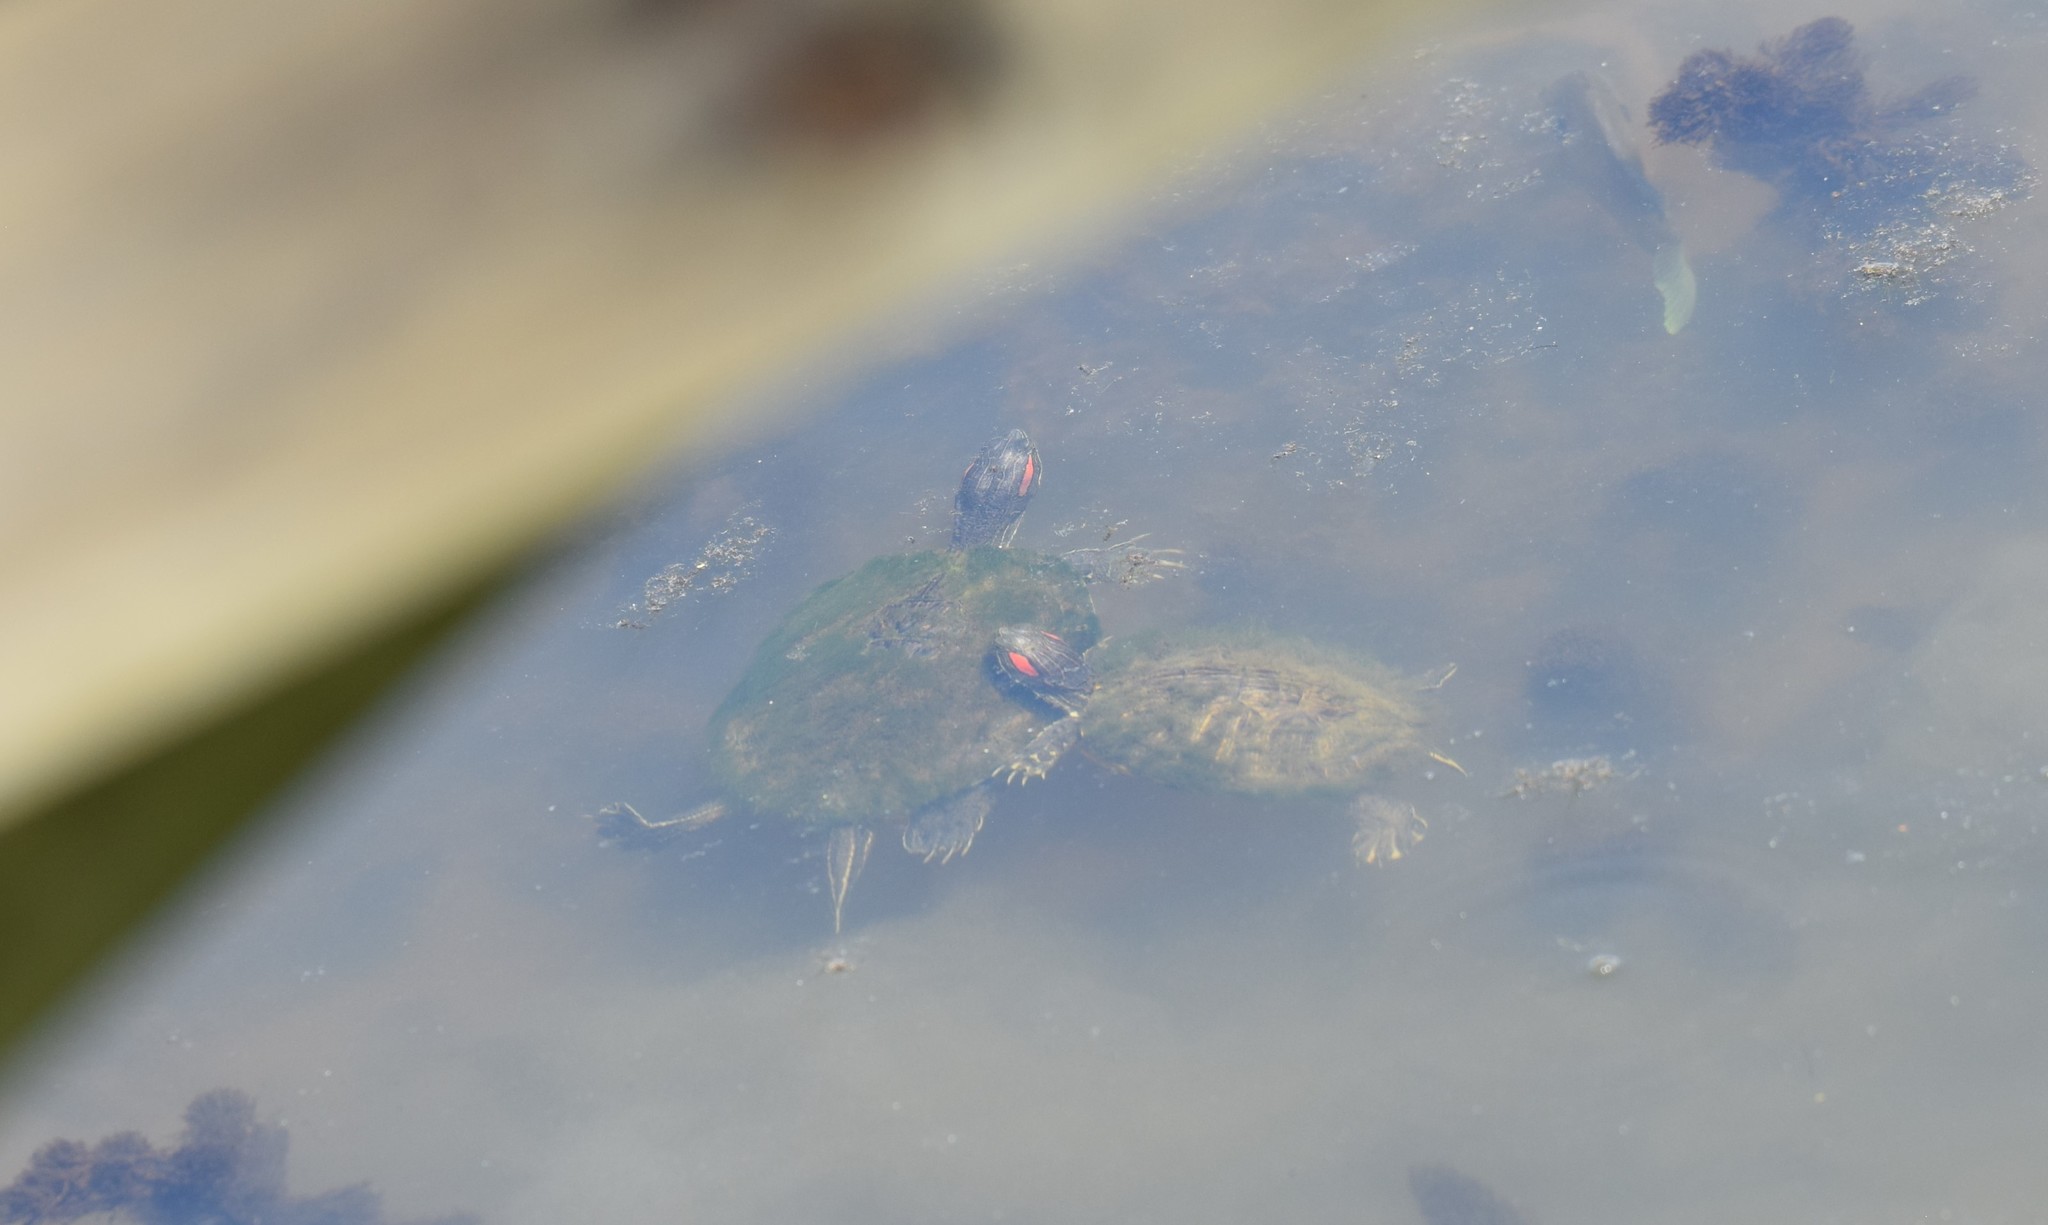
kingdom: Animalia
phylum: Chordata
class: Testudines
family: Emydidae
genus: Trachemys
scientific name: Trachemys scripta
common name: Slider
